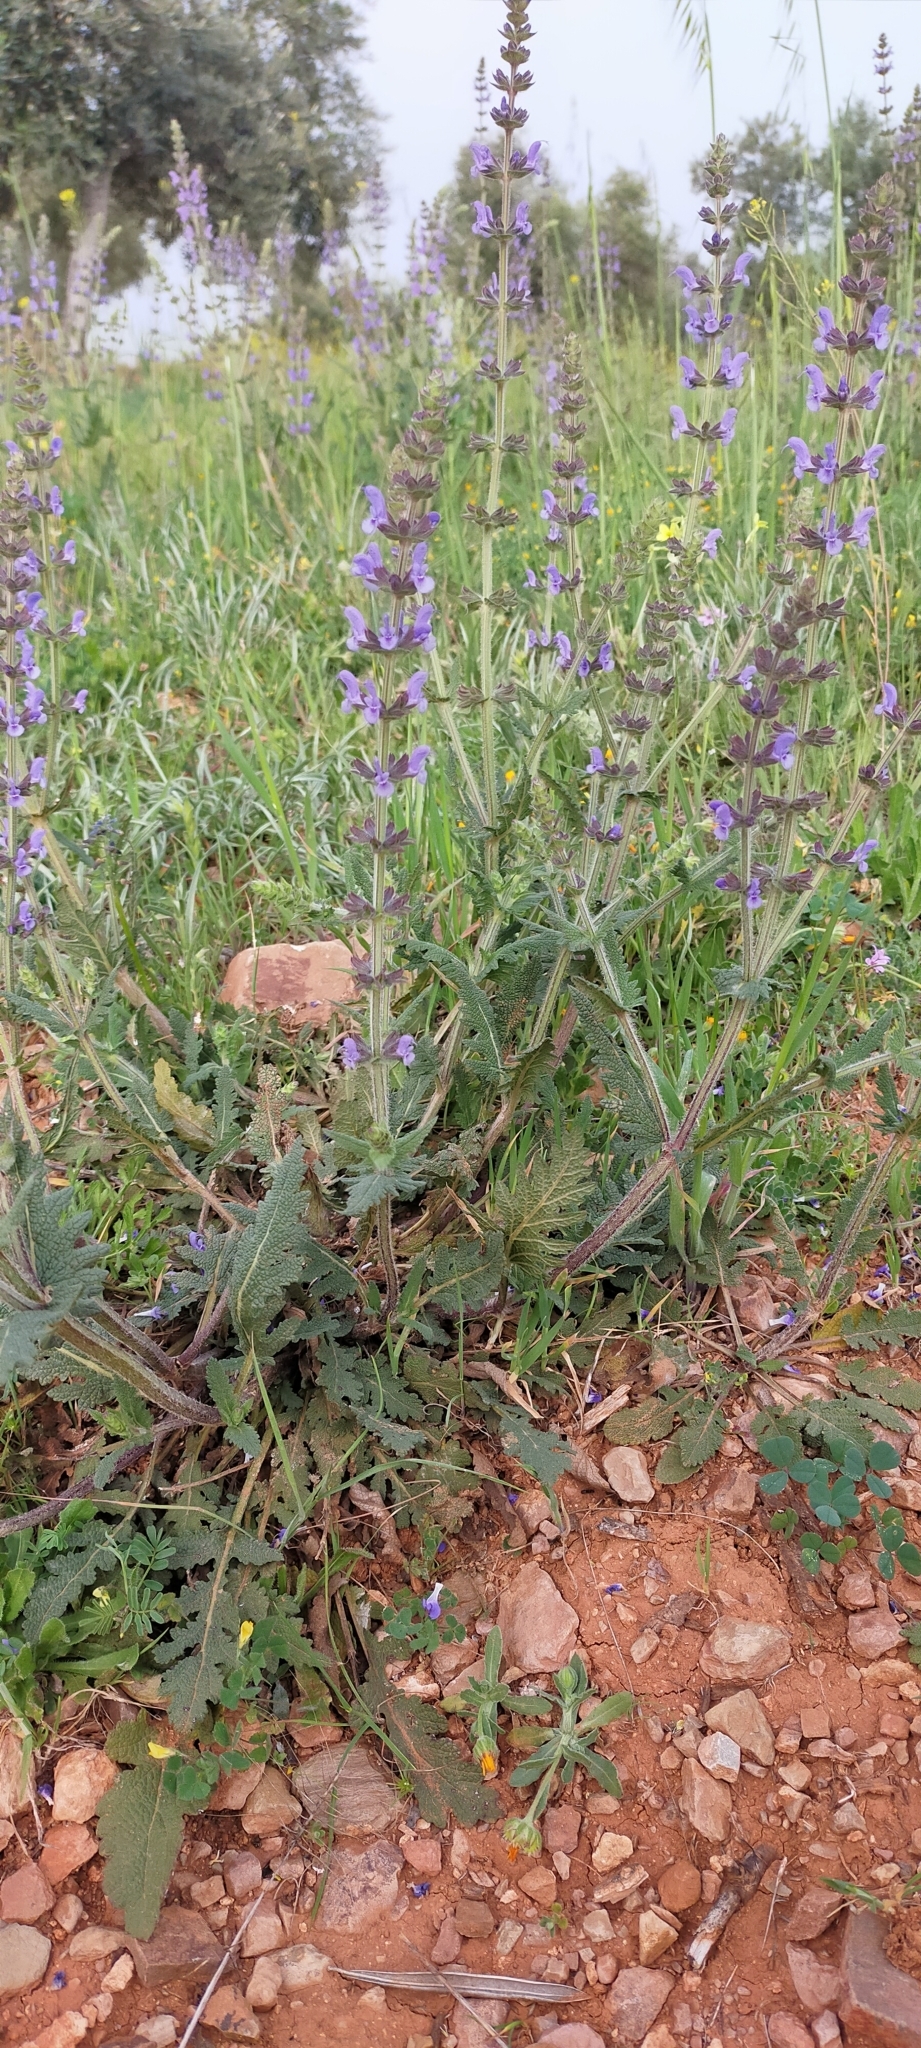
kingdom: Plantae
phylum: Tracheophyta
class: Magnoliopsida
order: Lamiales
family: Lamiaceae
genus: Salvia
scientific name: Salvia verbenaca
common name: Wild clary
